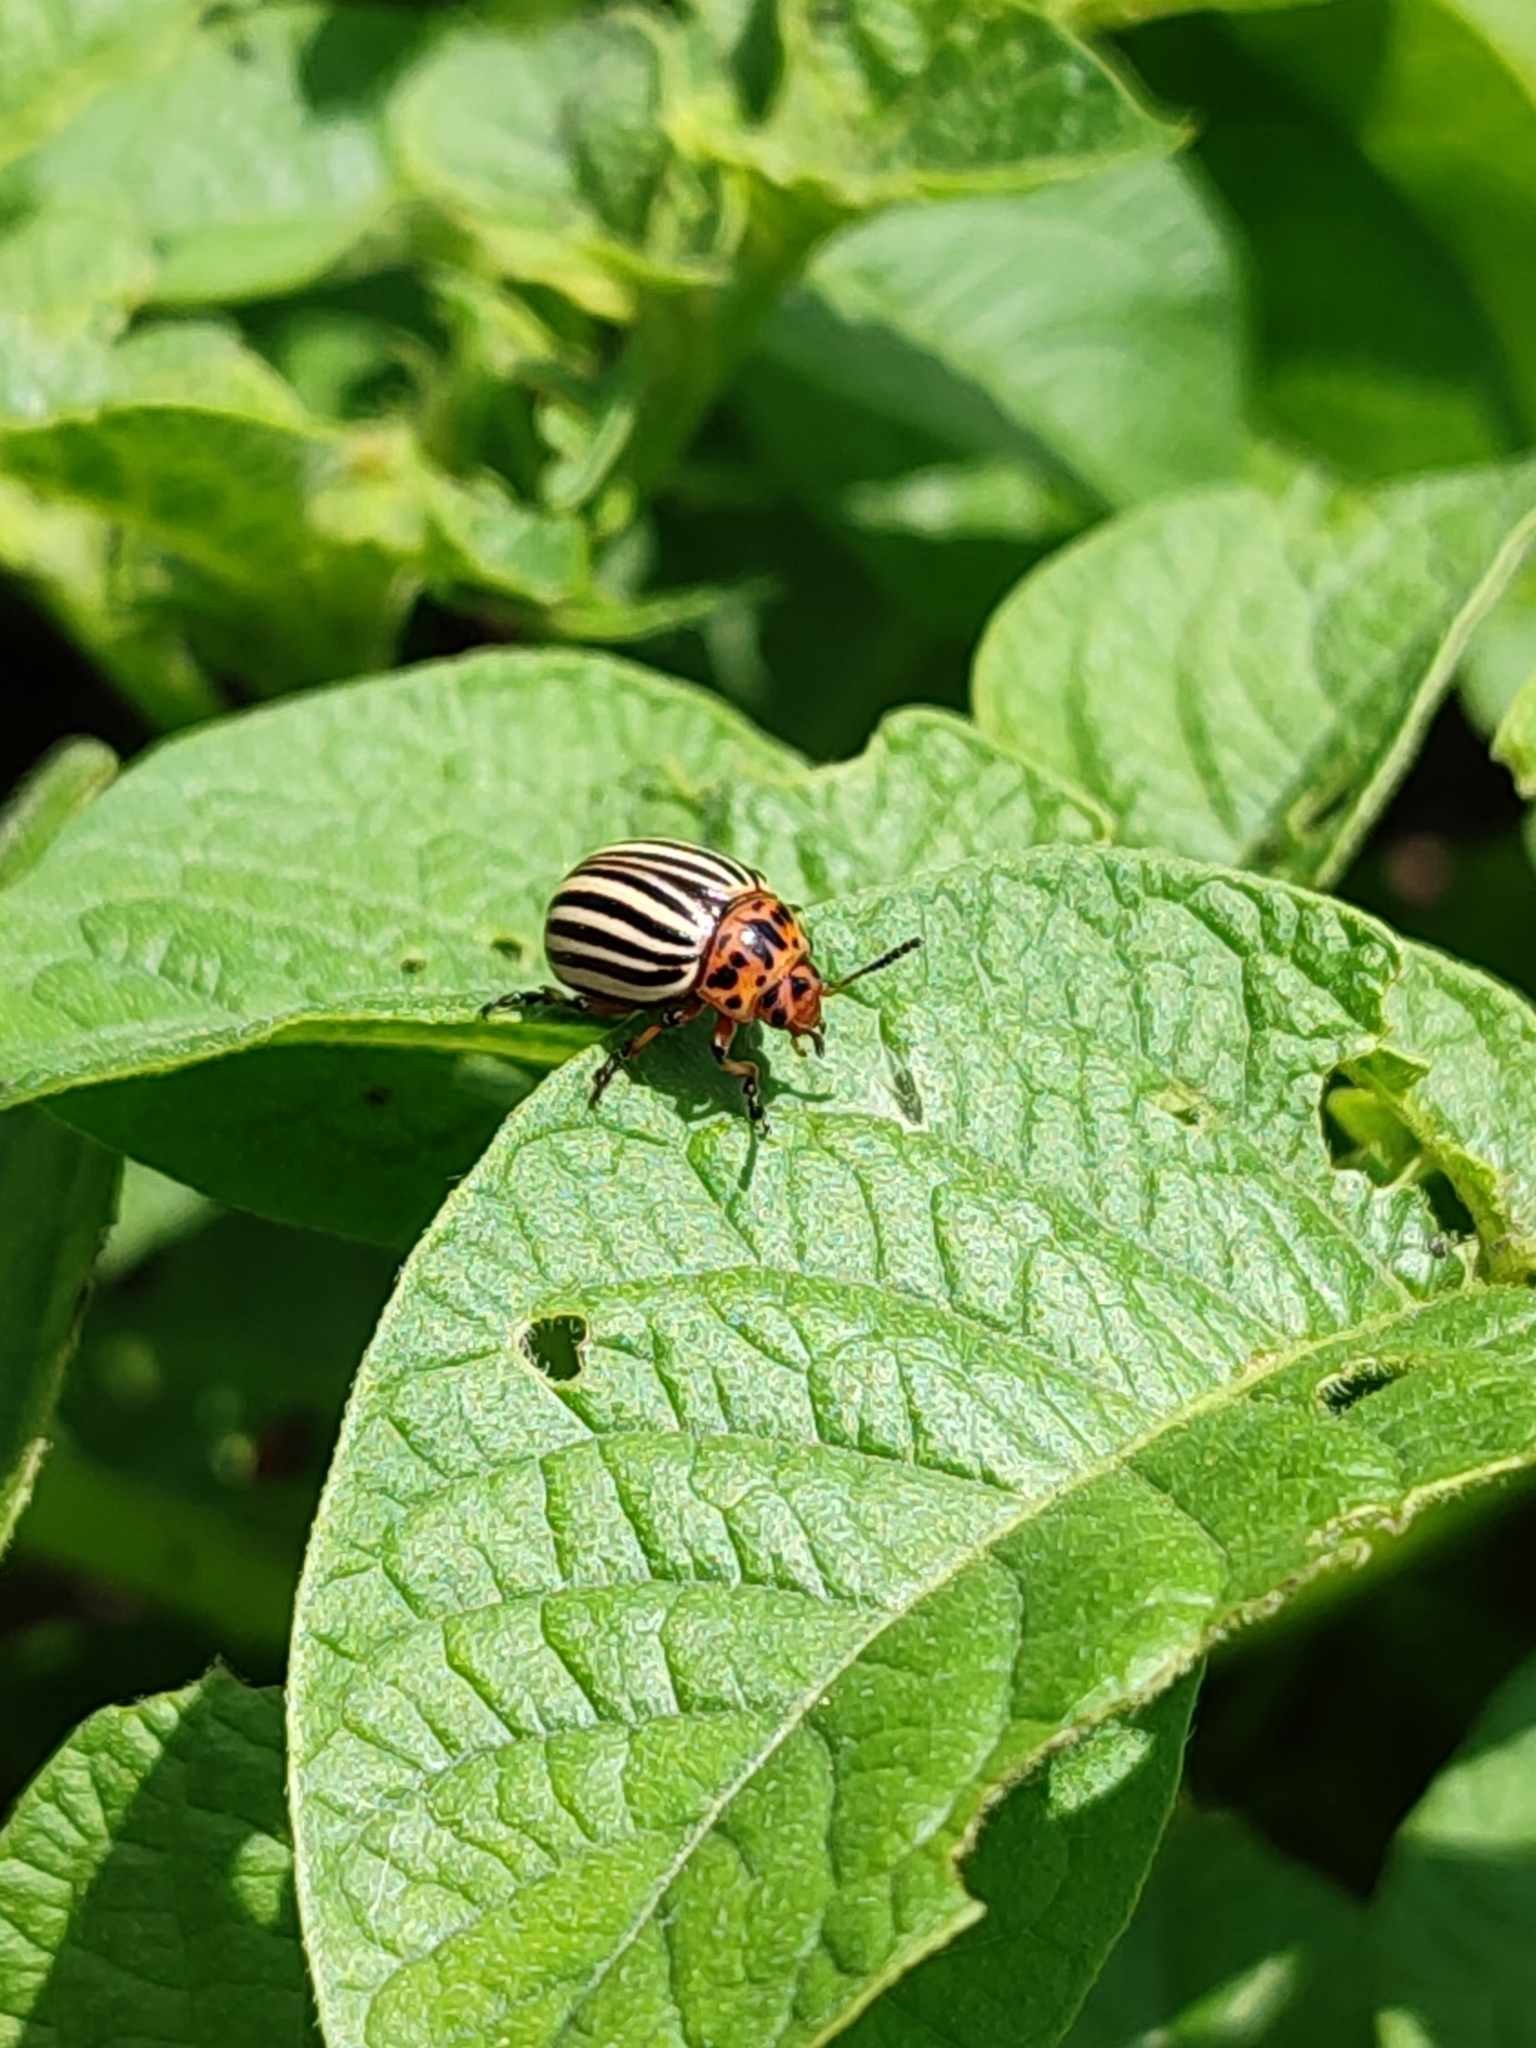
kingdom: Animalia
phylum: Arthropoda
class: Insecta
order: Coleoptera
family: Chrysomelidae
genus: Leptinotarsa
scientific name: Leptinotarsa decemlineata
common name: Colorado potato beetle
